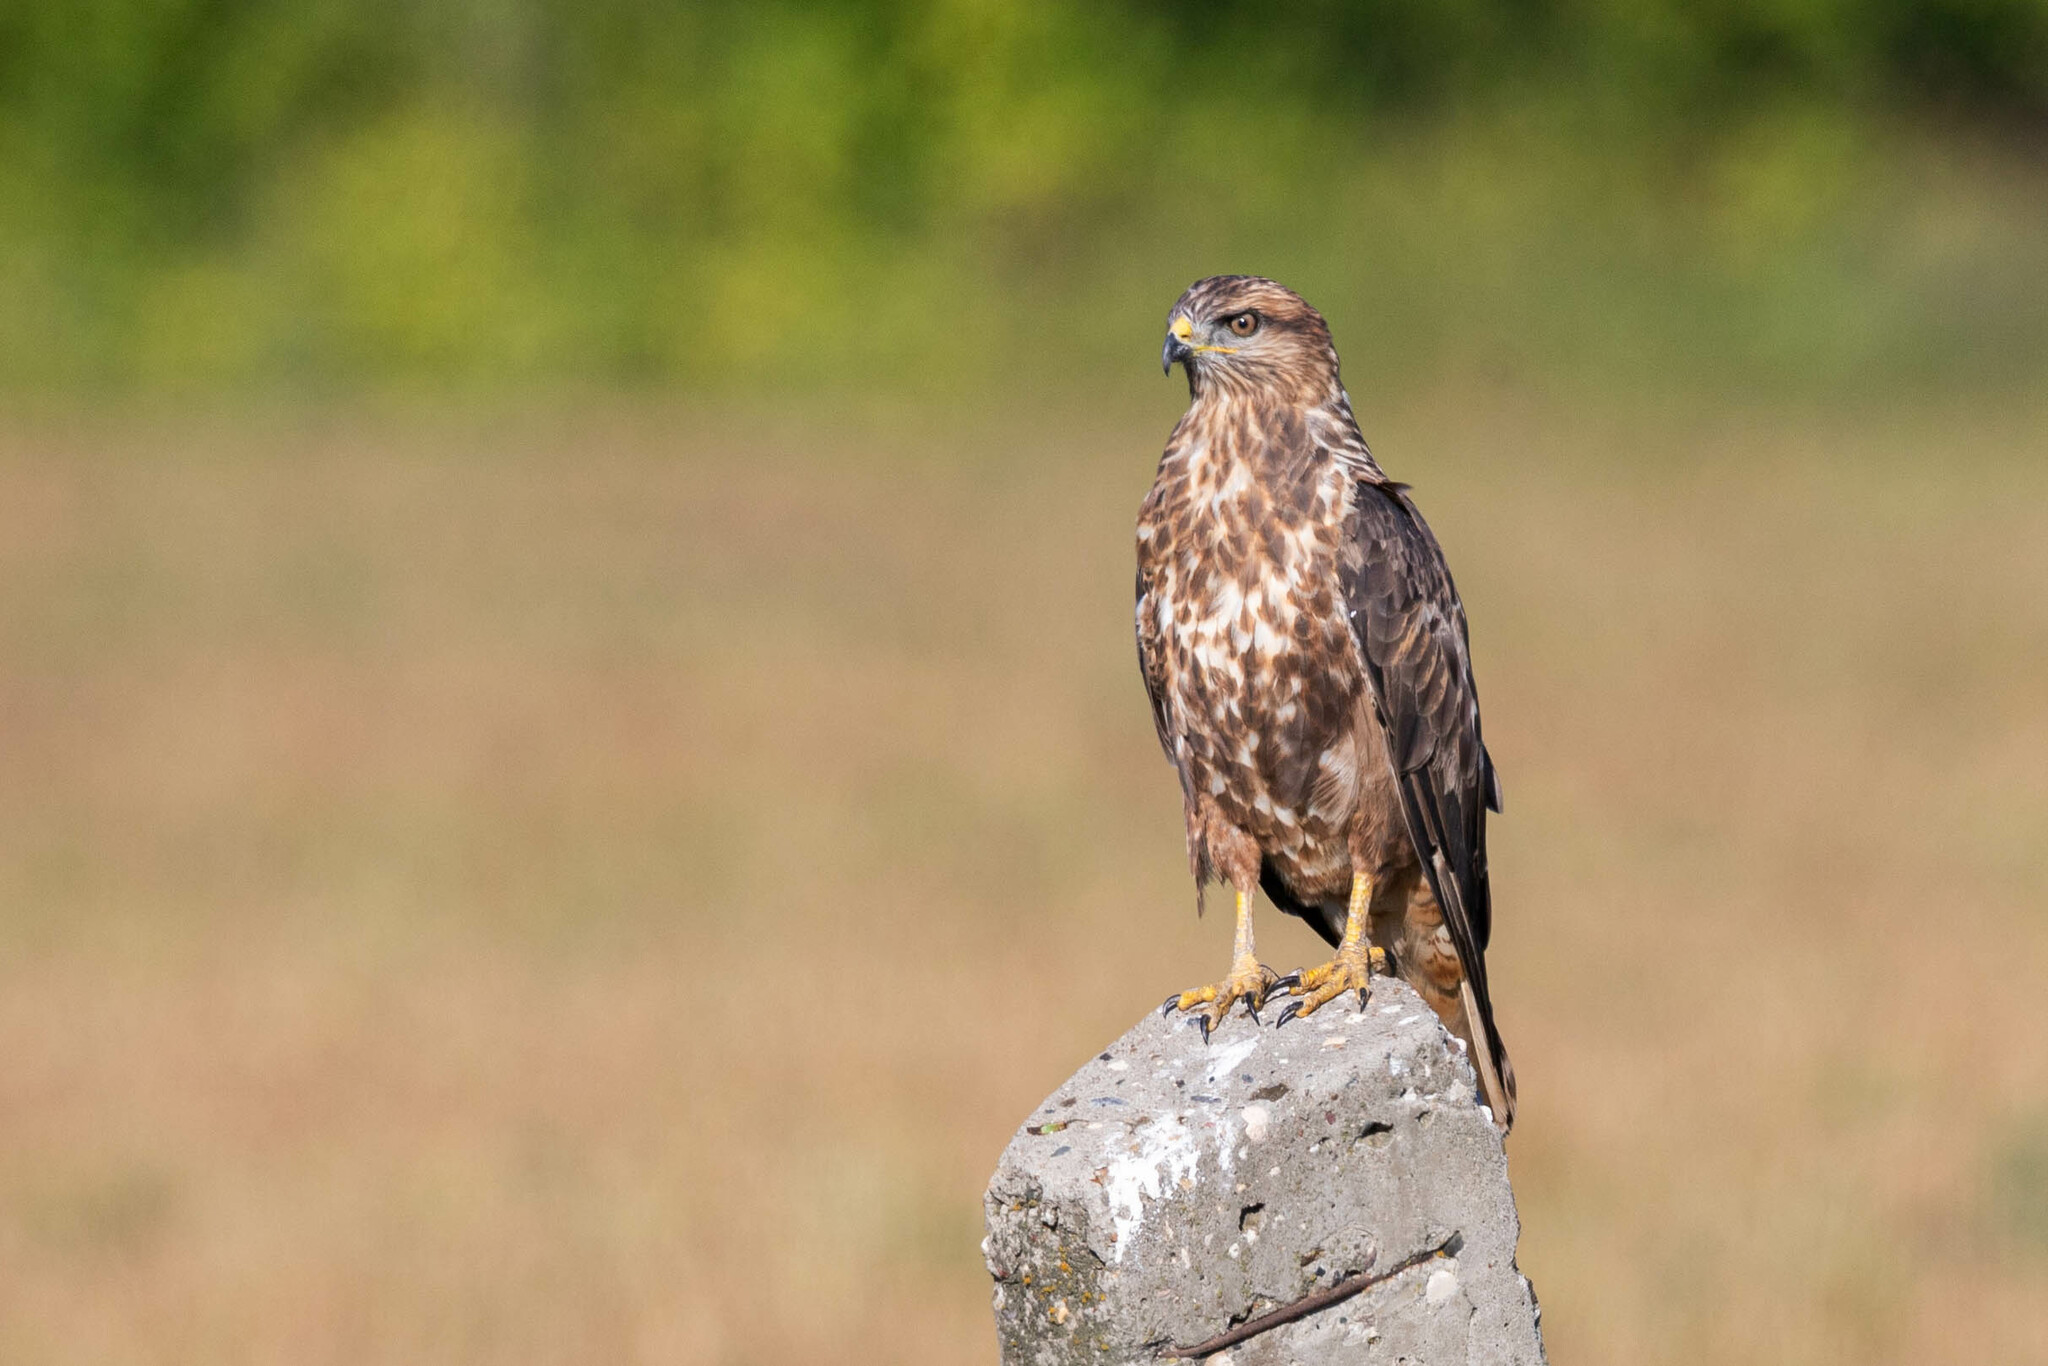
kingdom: Animalia
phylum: Chordata
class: Aves
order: Accipitriformes
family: Accipitridae
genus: Buteo
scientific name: Buteo buteo
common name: Common buzzard
